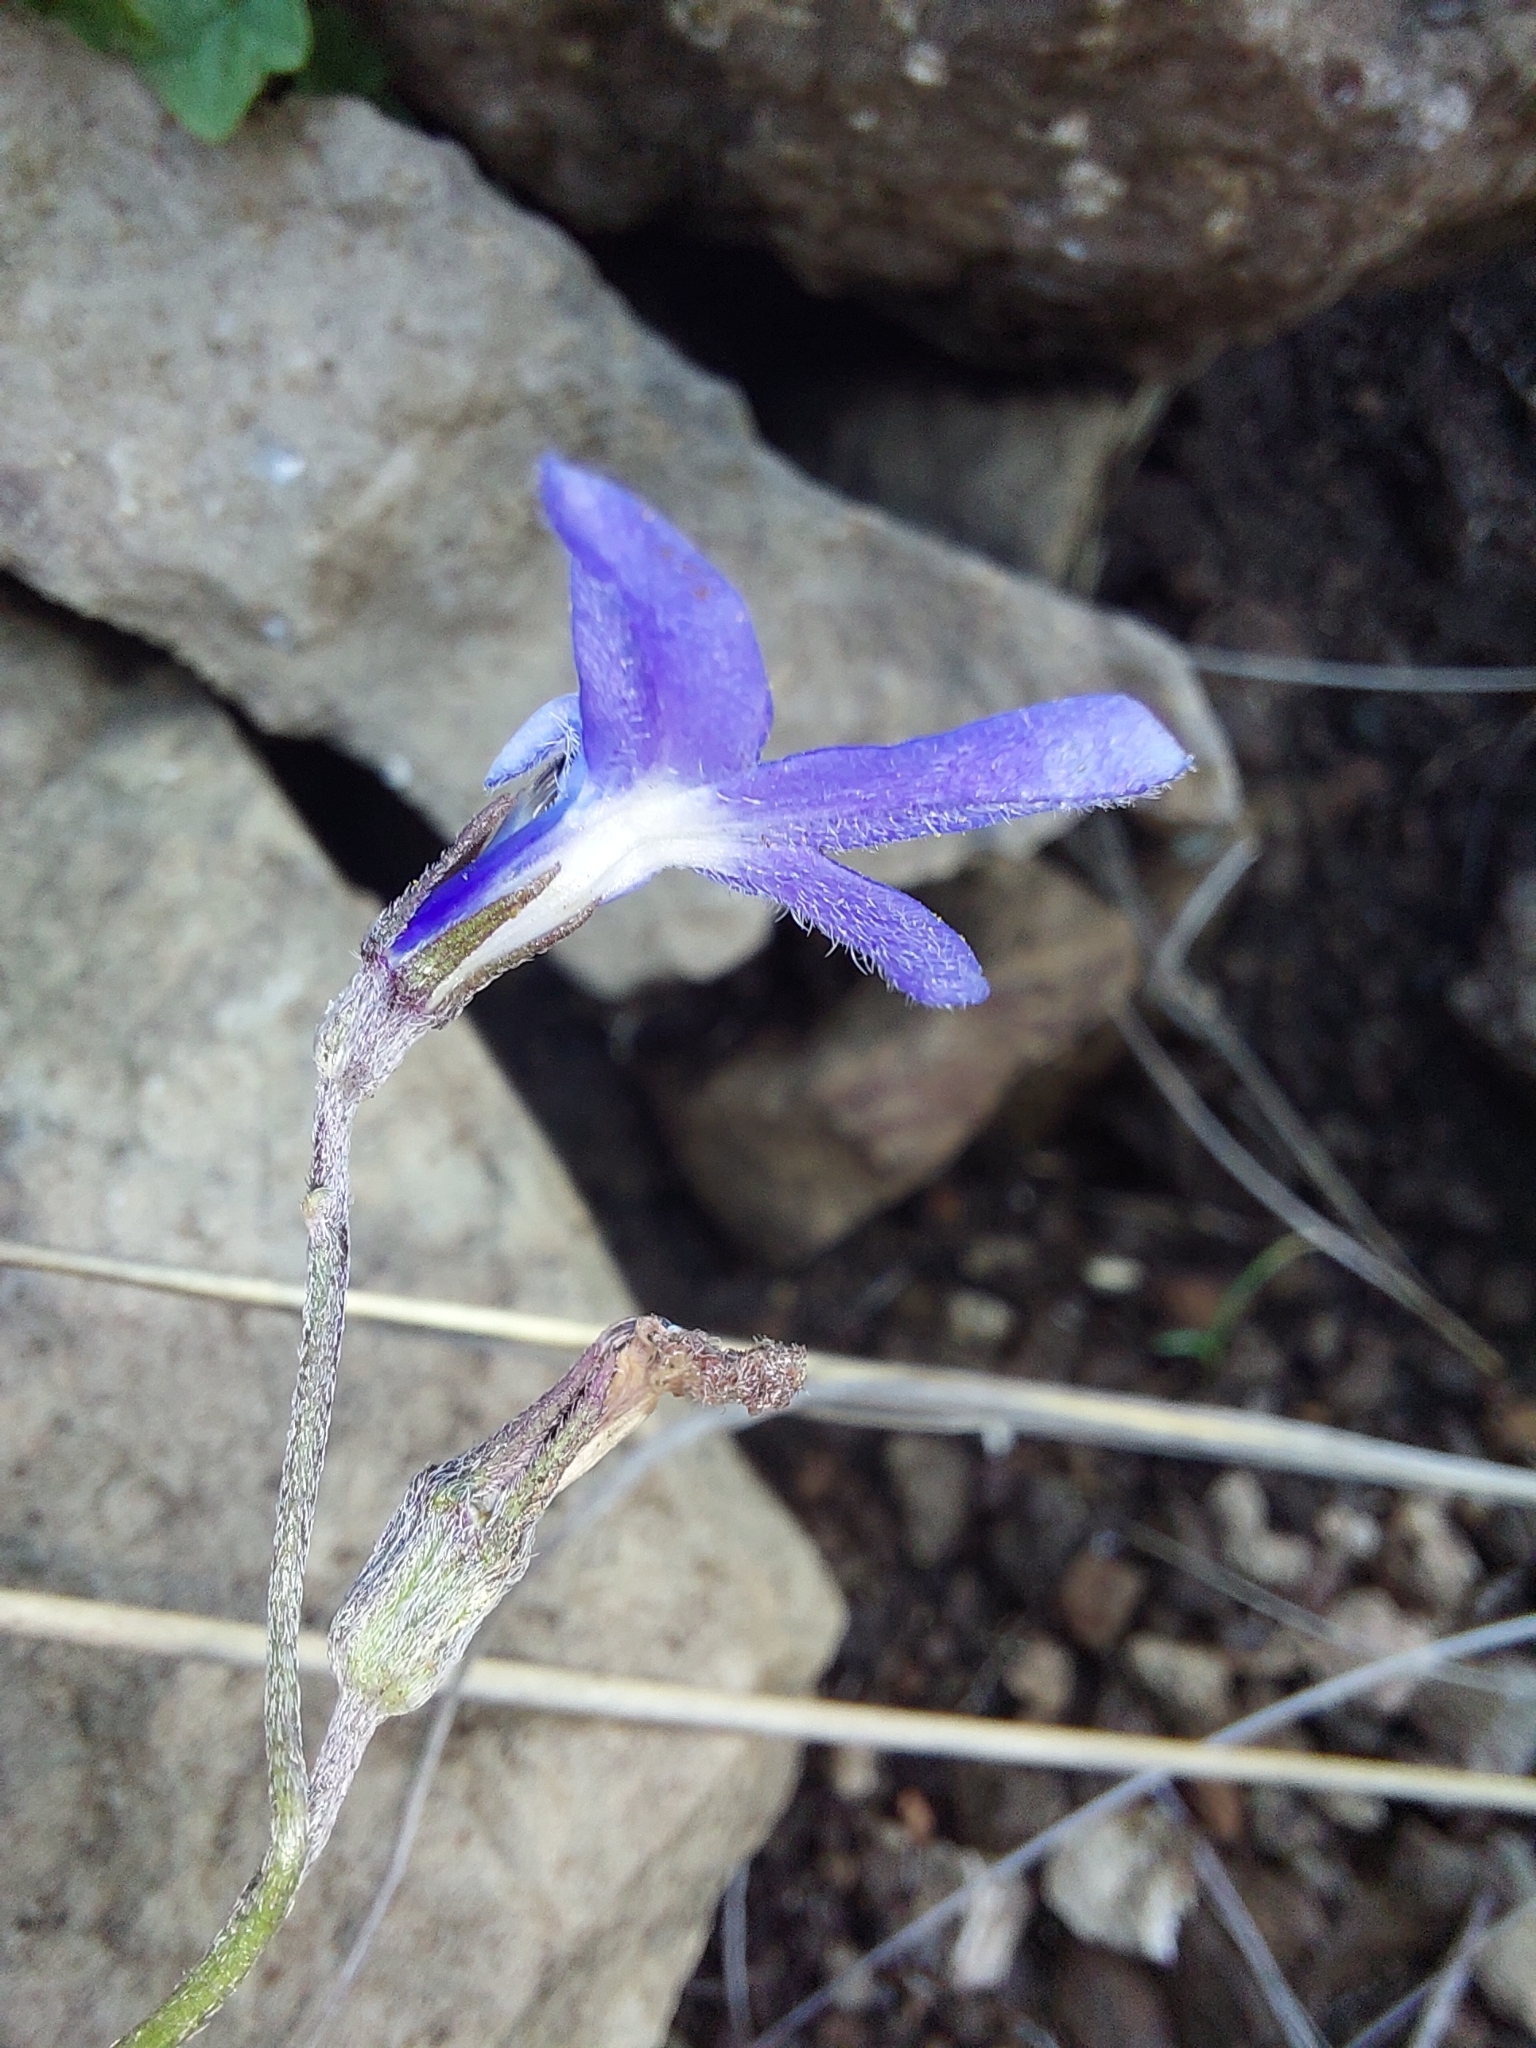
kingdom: Plantae
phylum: Tracheophyta
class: Magnoliopsida
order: Asterales
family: Campanulaceae
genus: Lobelia
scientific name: Lobelia preslii
